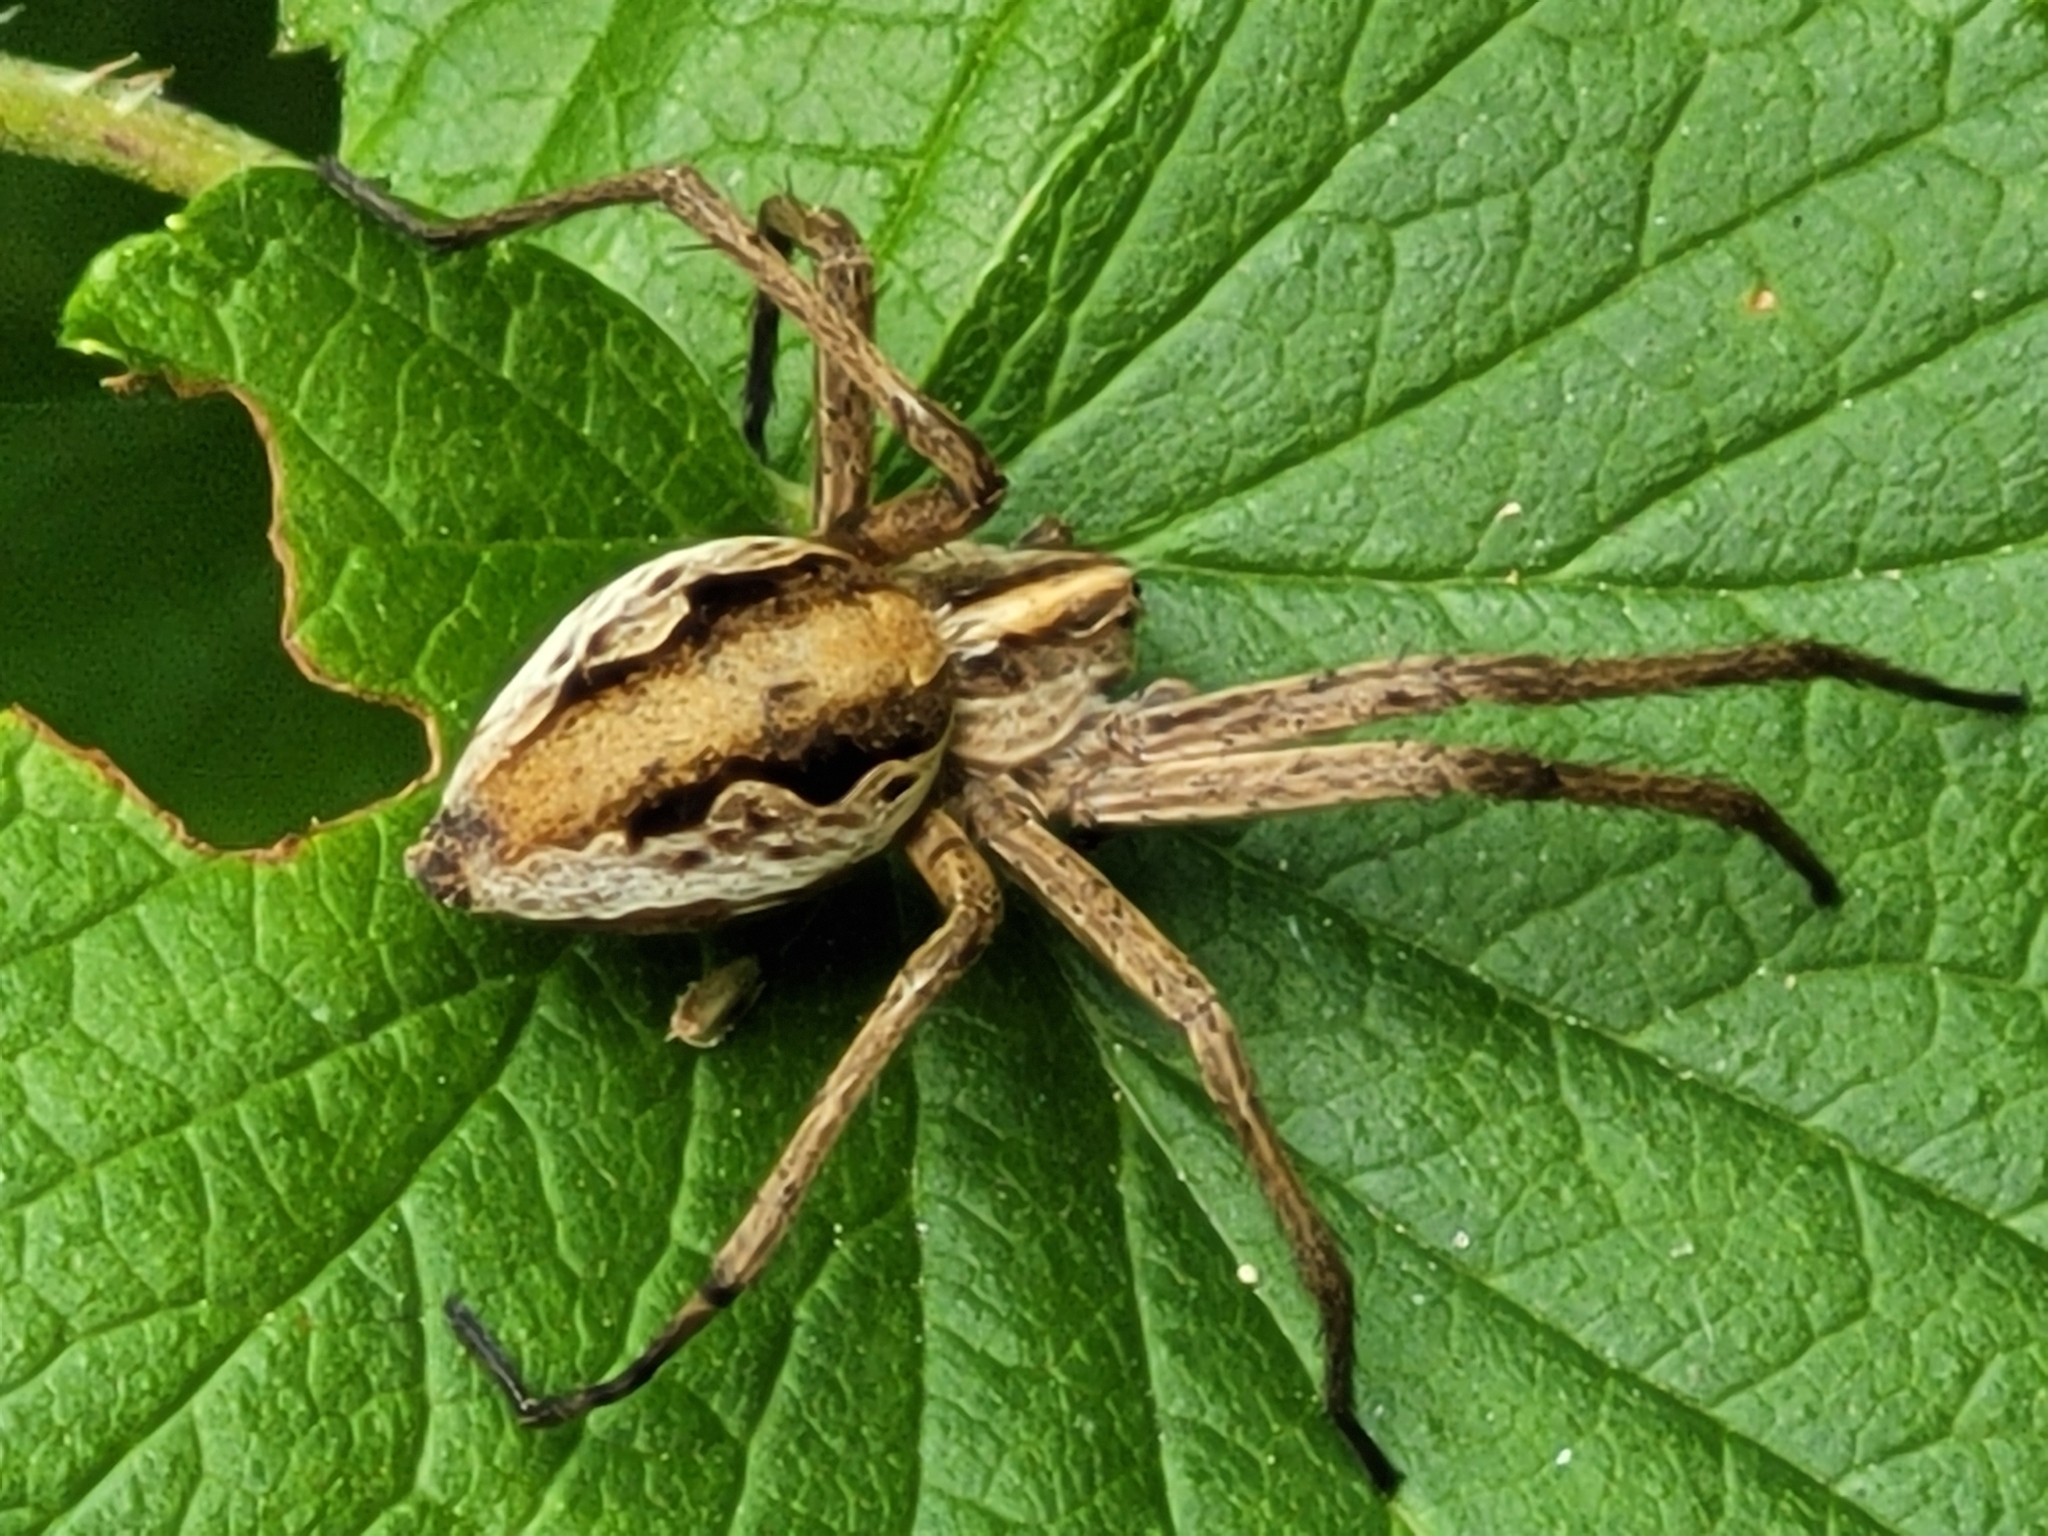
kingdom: Animalia
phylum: Arthropoda
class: Arachnida
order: Araneae
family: Pisauridae
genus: Pisaura
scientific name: Pisaura mirabilis
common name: Tent spider
